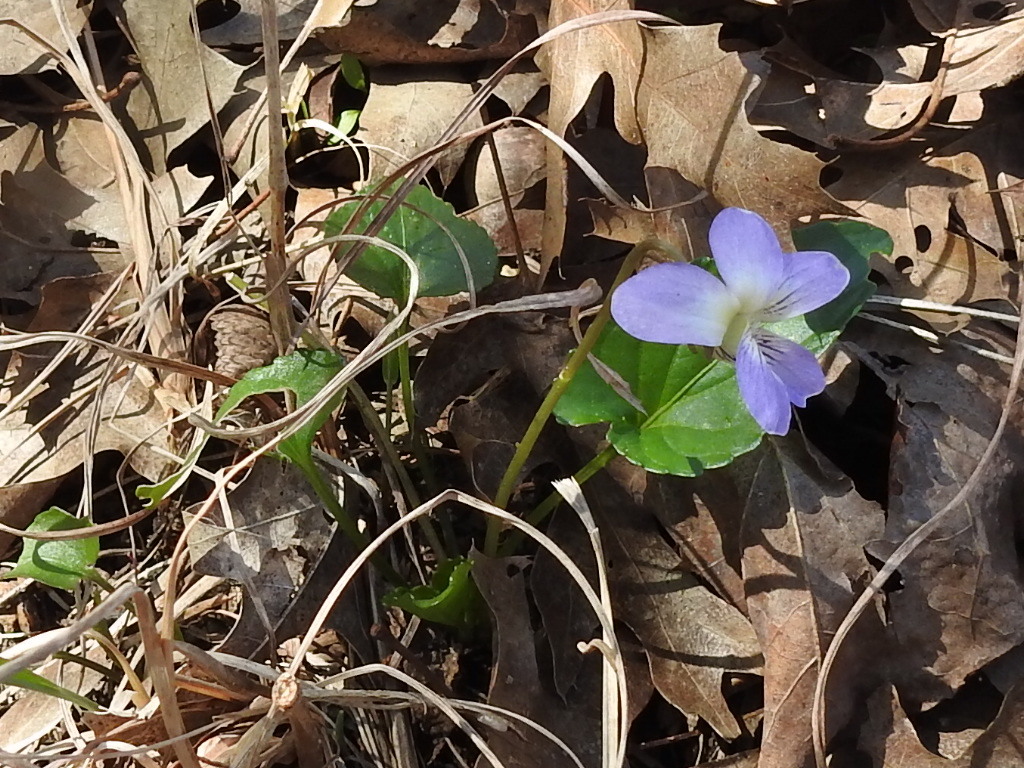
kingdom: Plantae
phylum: Tracheophyta
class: Magnoliopsida
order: Malpighiales
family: Violaceae
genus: Viola
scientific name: Viola missouriensis
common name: Missouri violet
